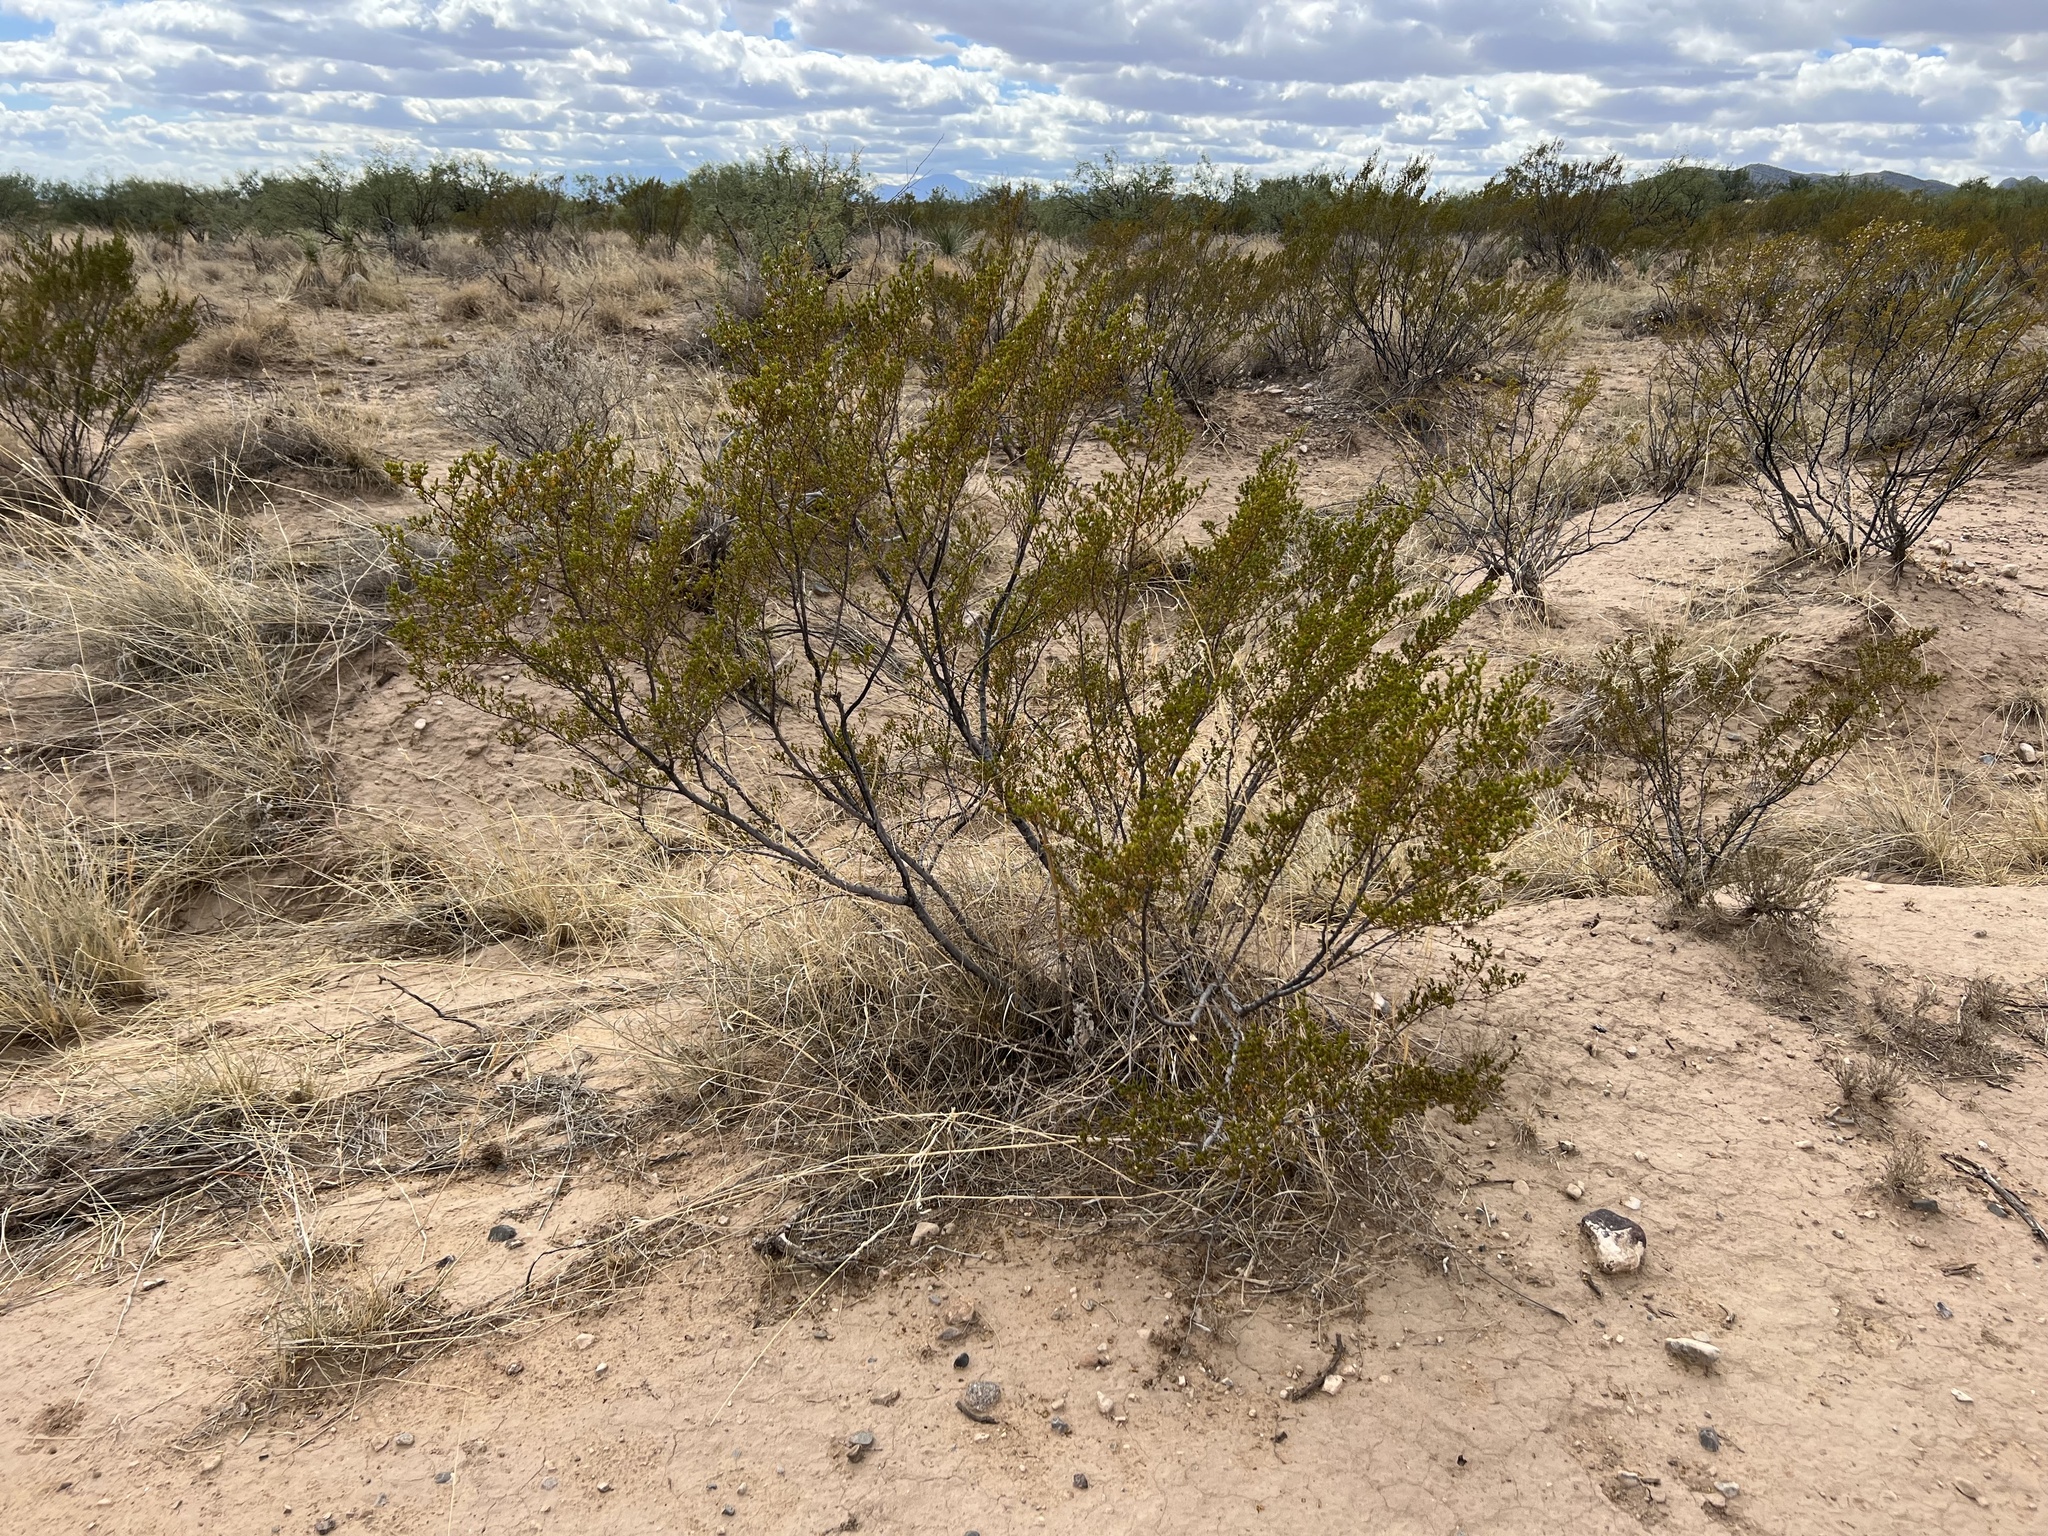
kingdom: Plantae
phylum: Tracheophyta
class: Magnoliopsida
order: Zygophyllales
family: Zygophyllaceae
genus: Larrea
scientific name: Larrea tridentata
